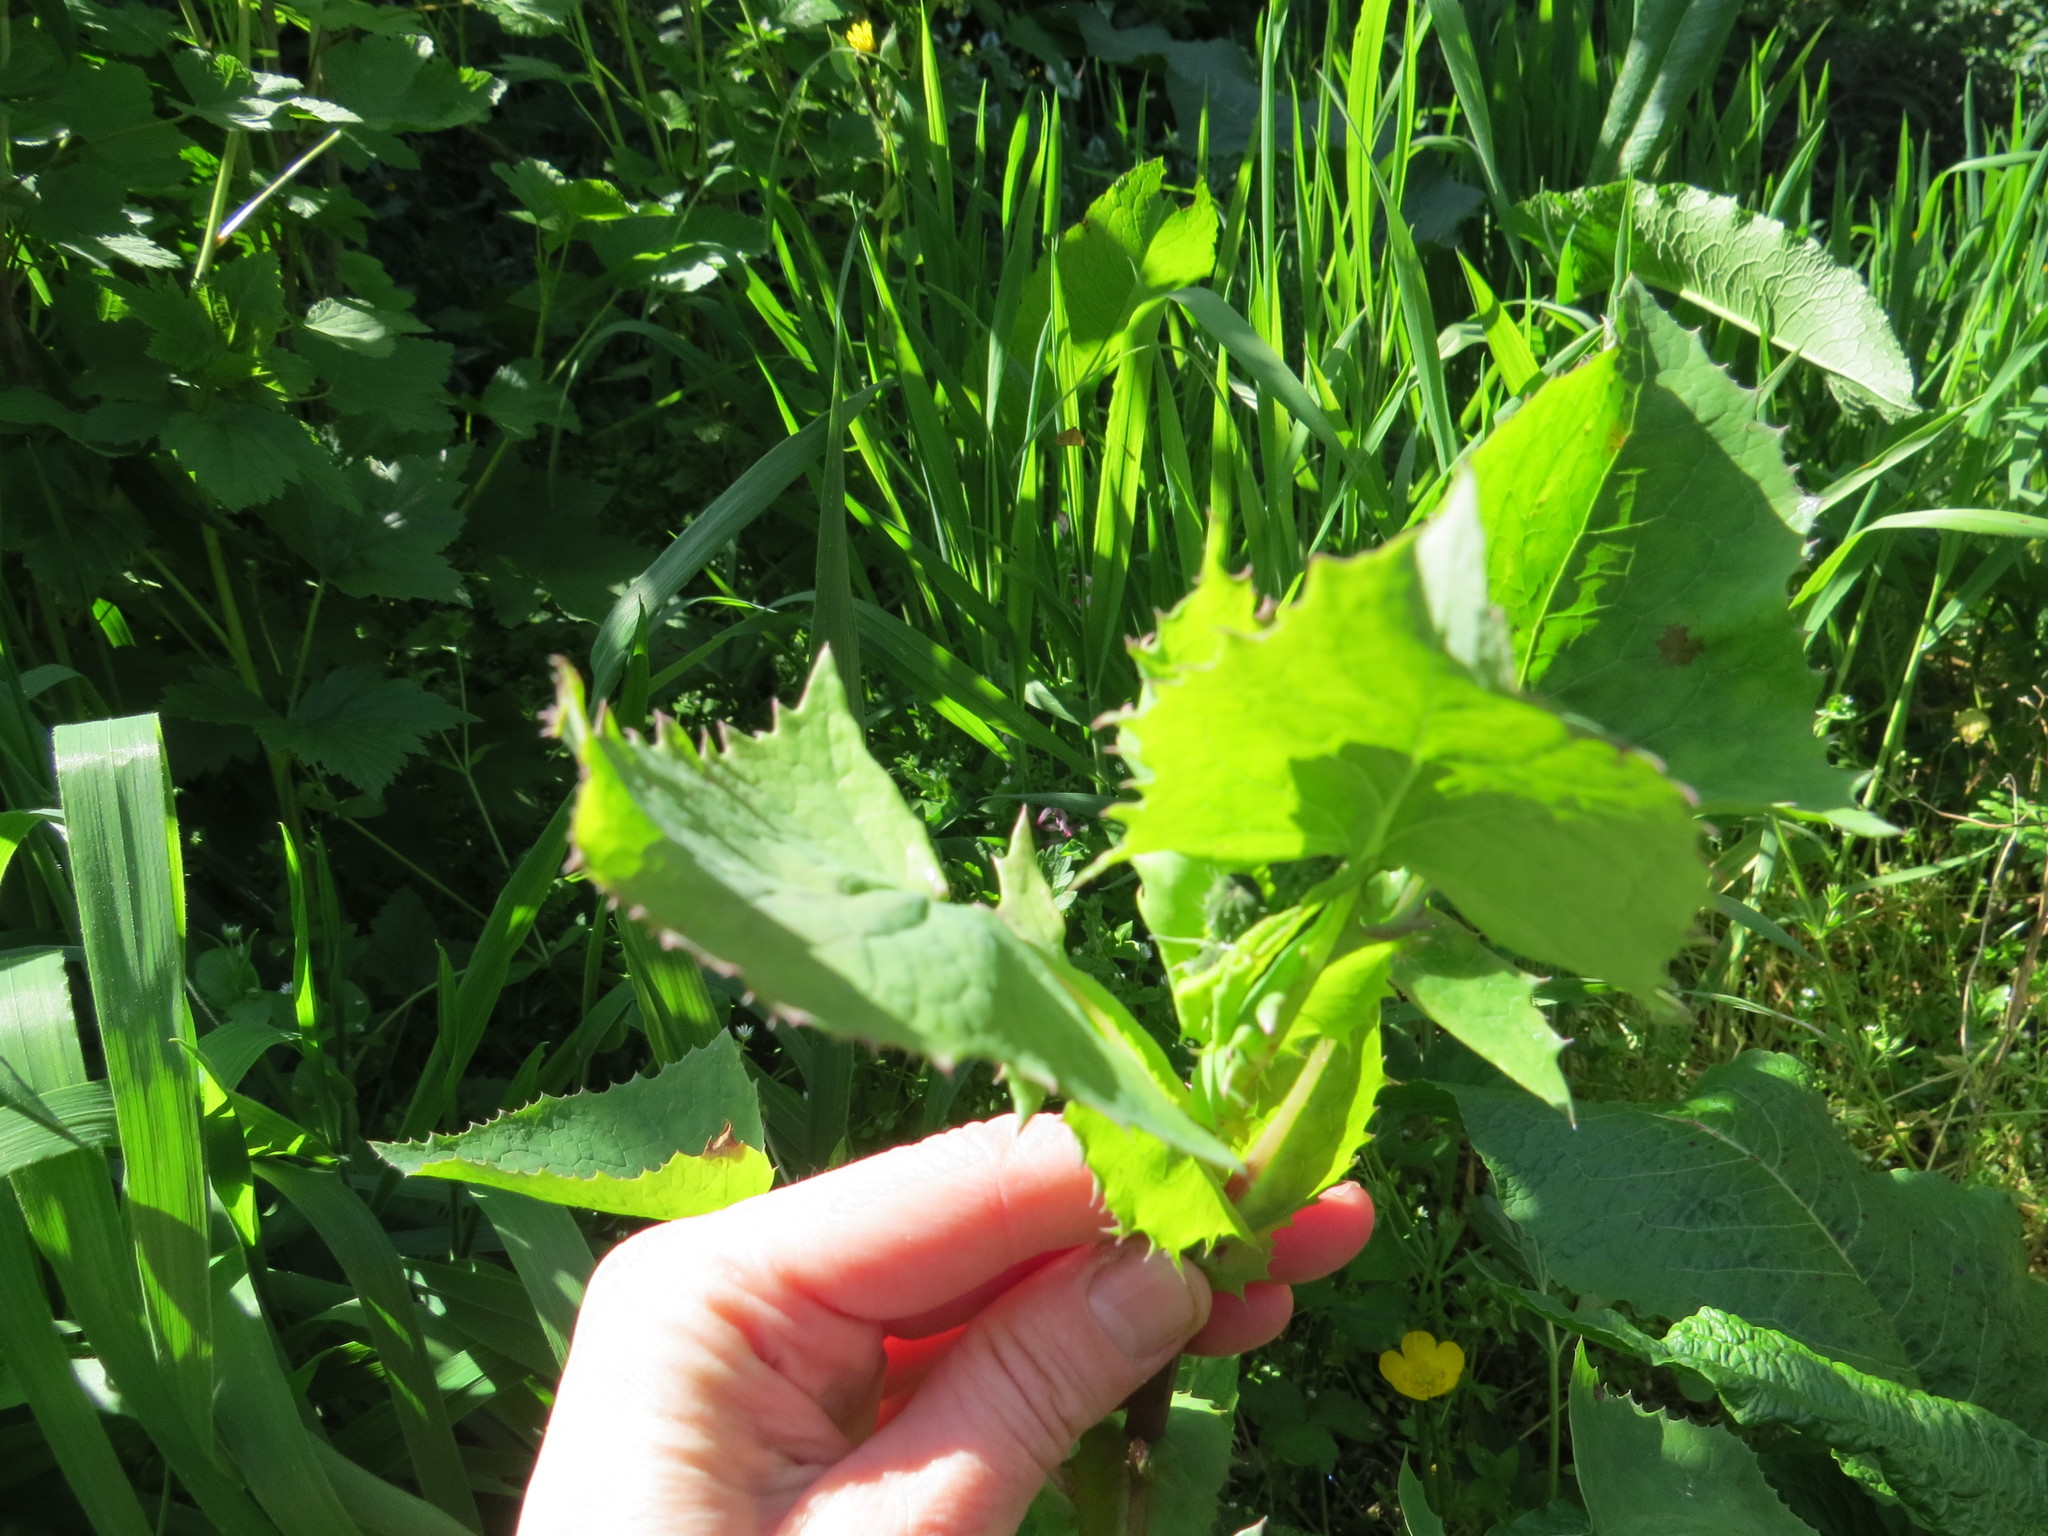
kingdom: Plantae
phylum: Tracheophyta
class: Magnoliopsida
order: Asterales
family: Asteraceae
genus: Sonchus
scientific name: Sonchus oleraceus
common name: Common sowthistle
